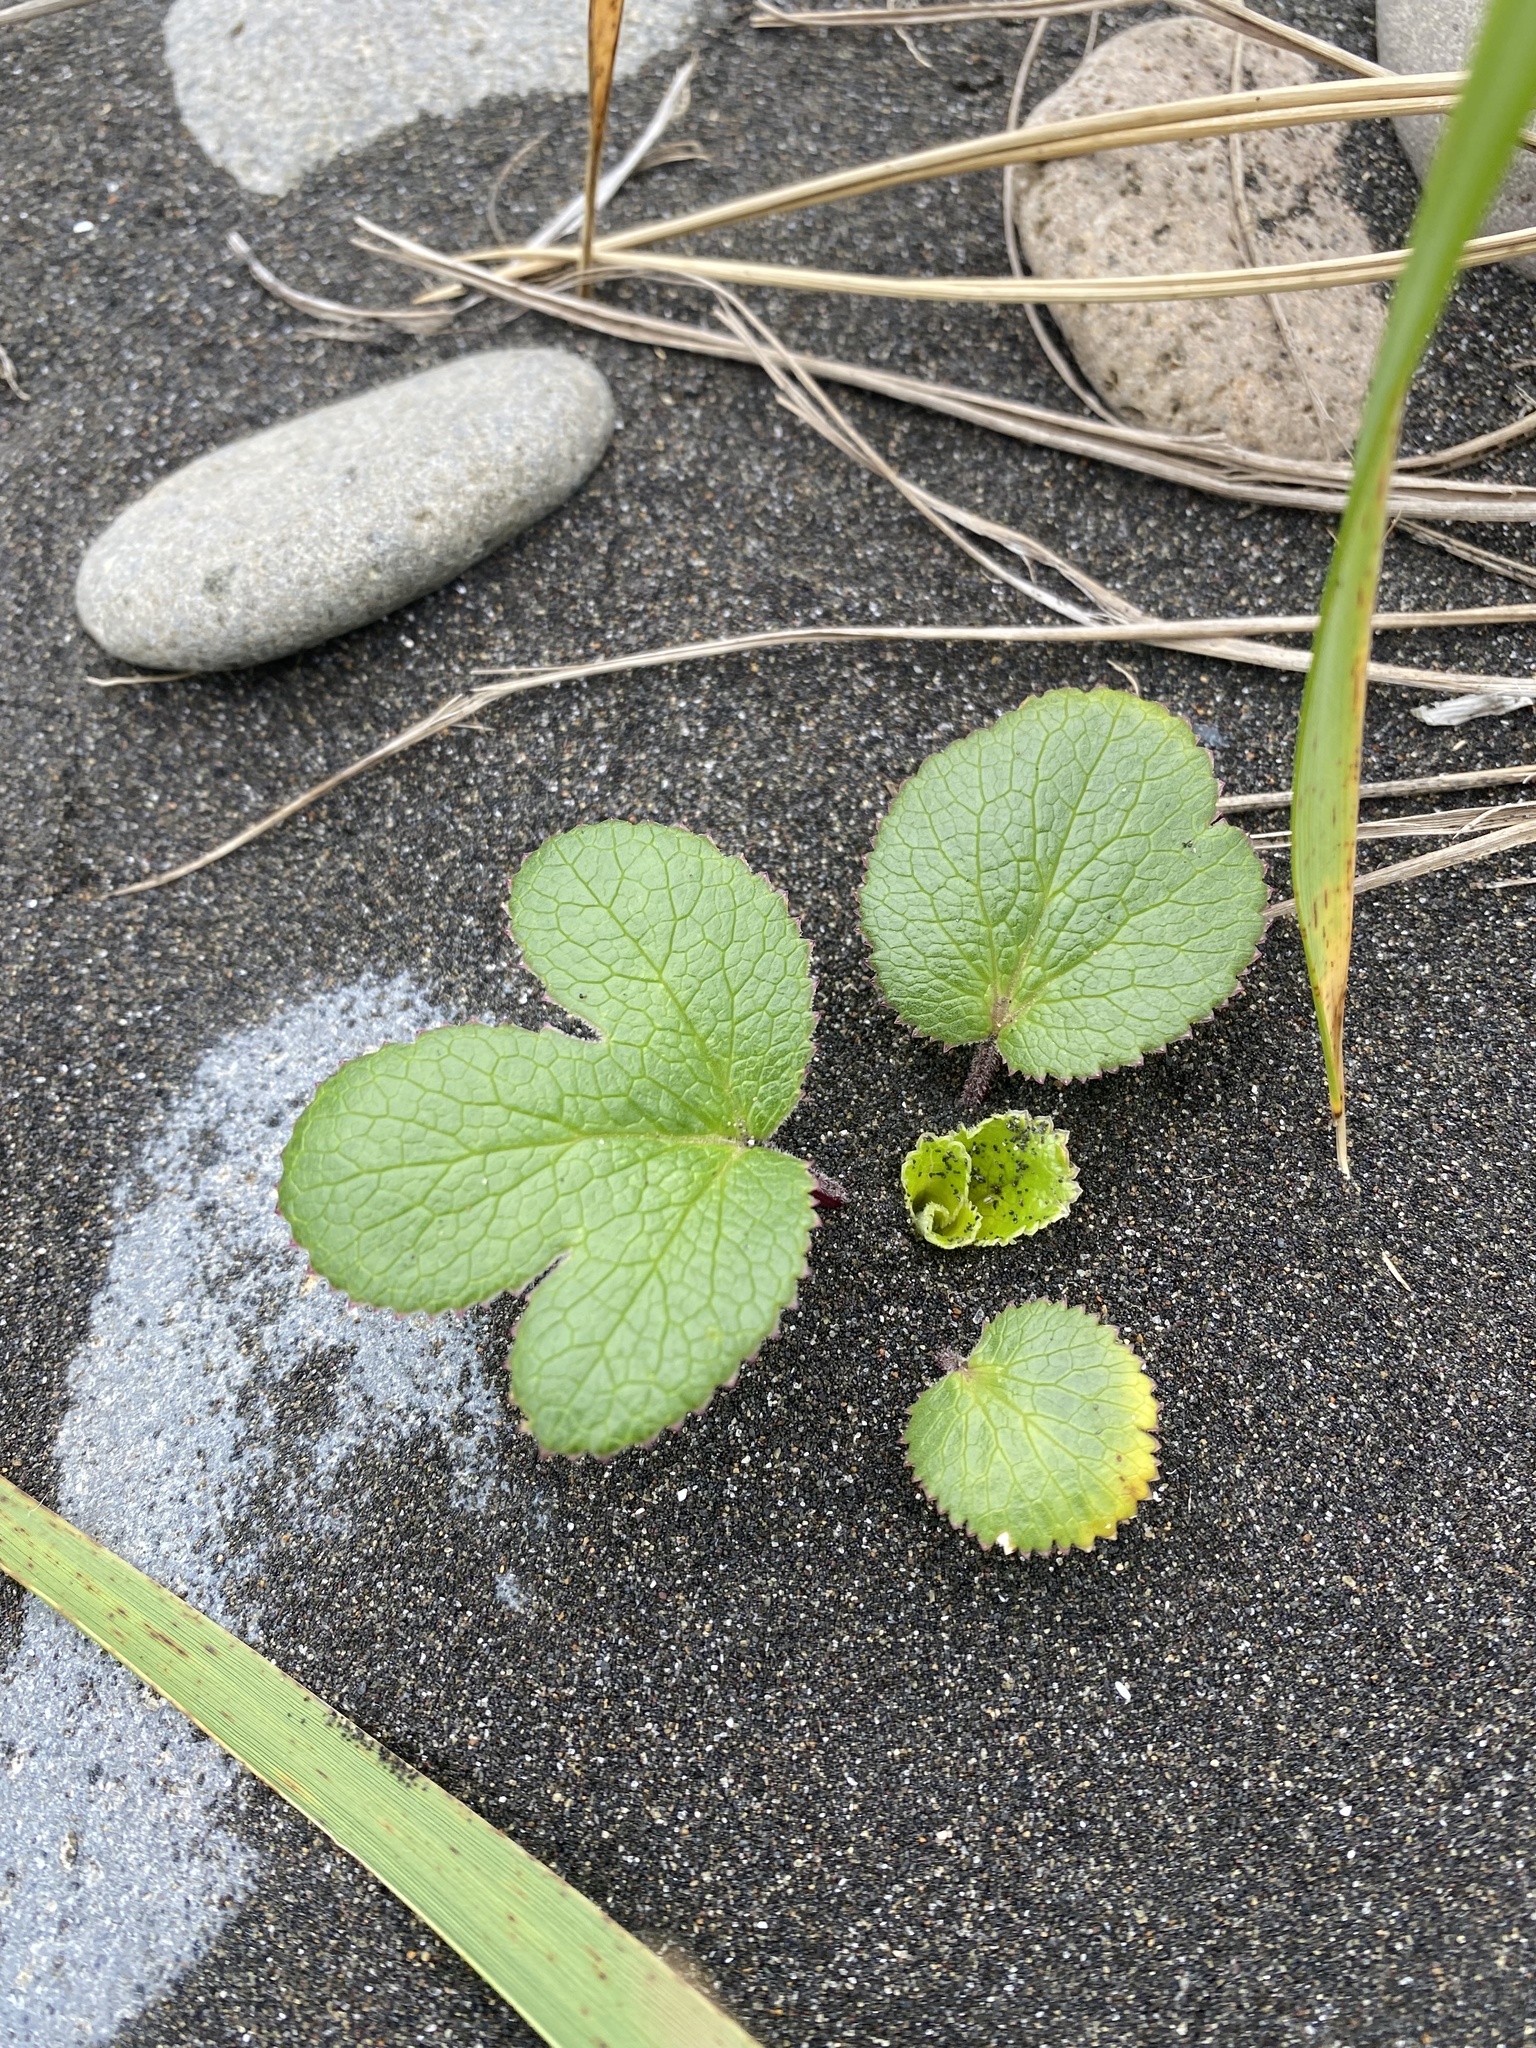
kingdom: Plantae
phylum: Tracheophyta
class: Magnoliopsida
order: Apiales
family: Apiaceae
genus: Glehnia
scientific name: Glehnia littoralis
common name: Beach silvertop
